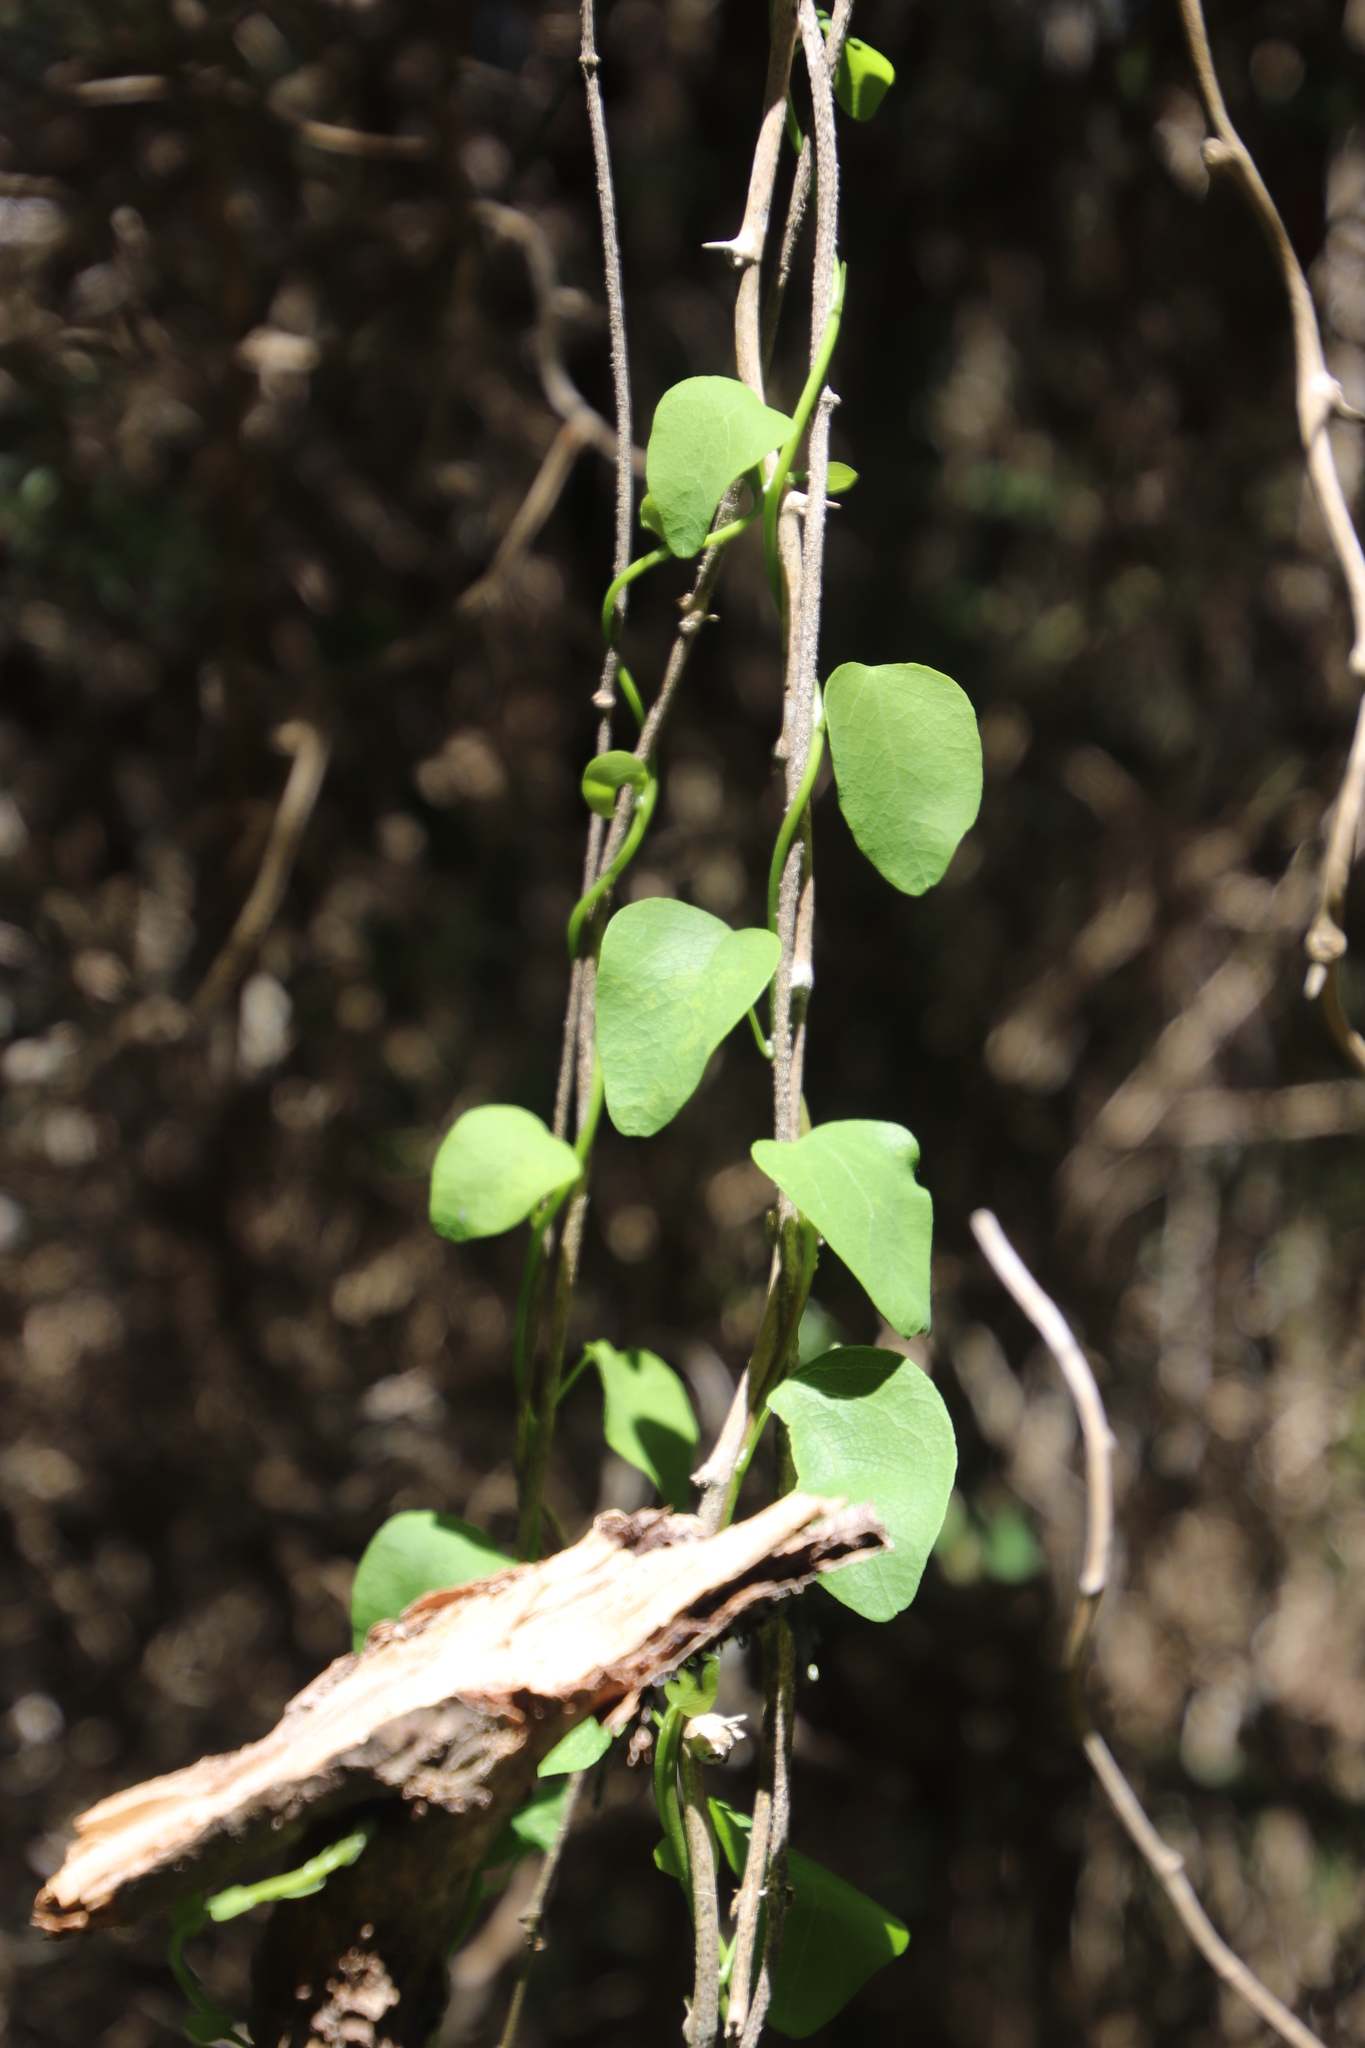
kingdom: Plantae
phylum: Tracheophyta
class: Magnoliopsida
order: Ranunculales
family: Menispermaceae
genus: Cissampelos
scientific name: Cissampelos capensis
